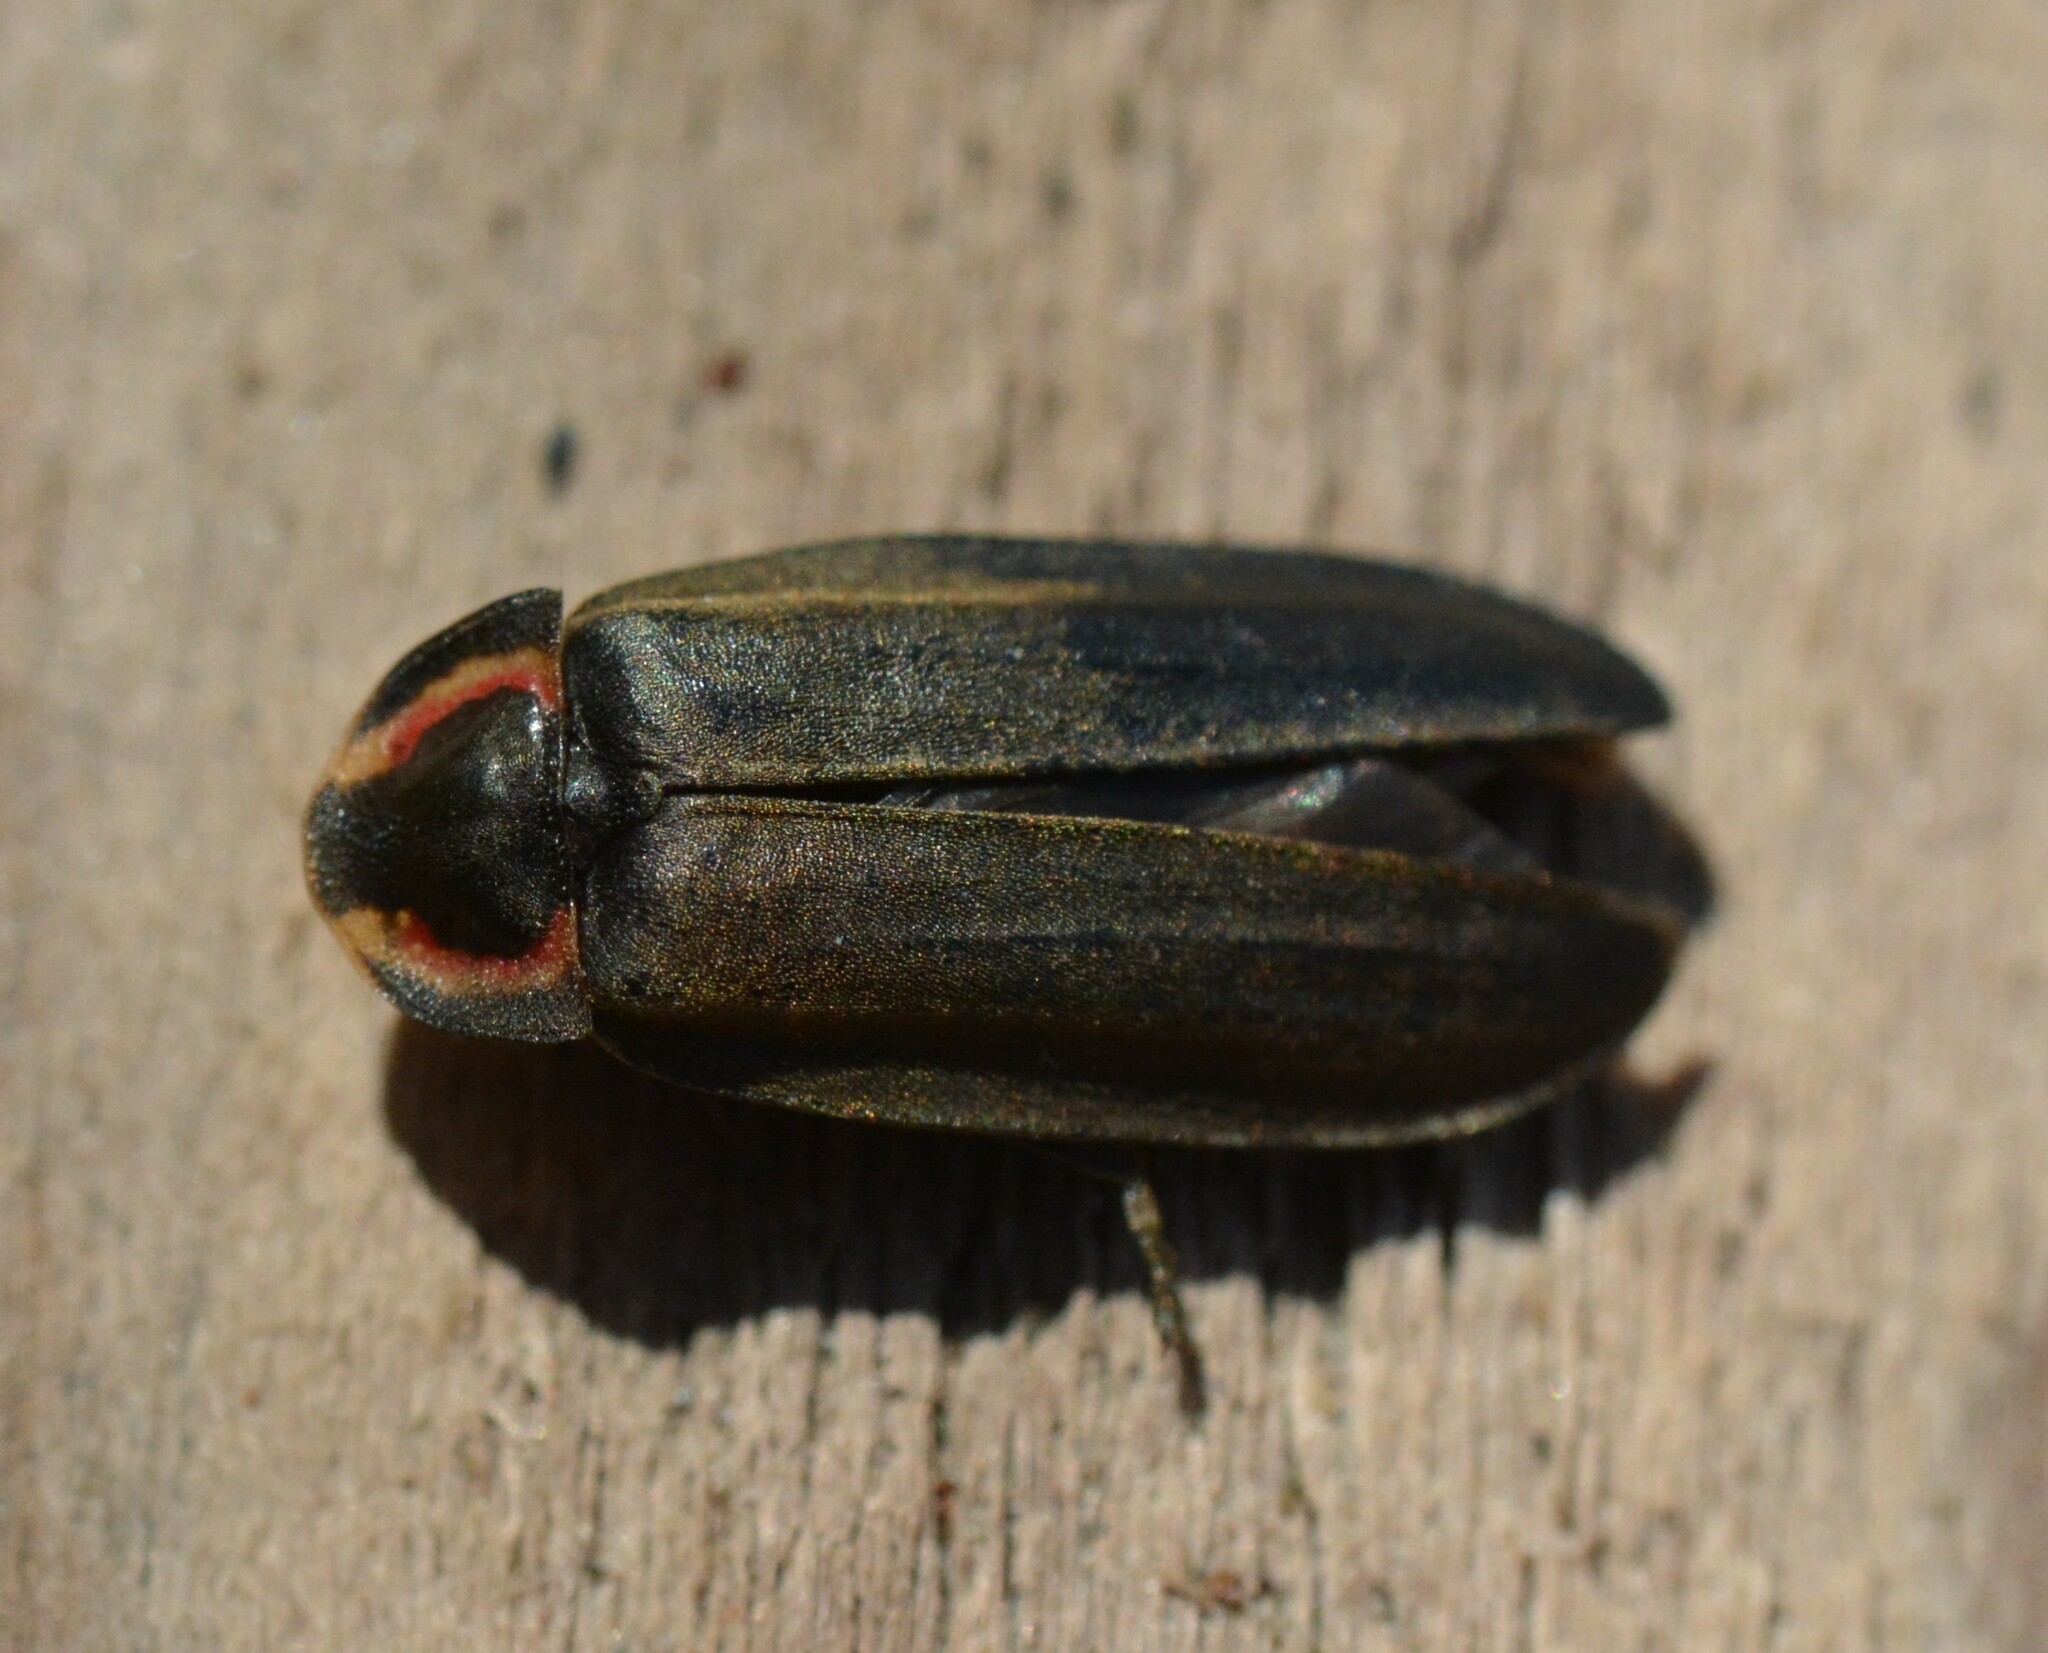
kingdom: Animalia
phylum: Arthropoda
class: Insecta
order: Coleoptera
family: Lampyridae
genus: Photinus
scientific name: Photinus corrusca
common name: Winter firefly
